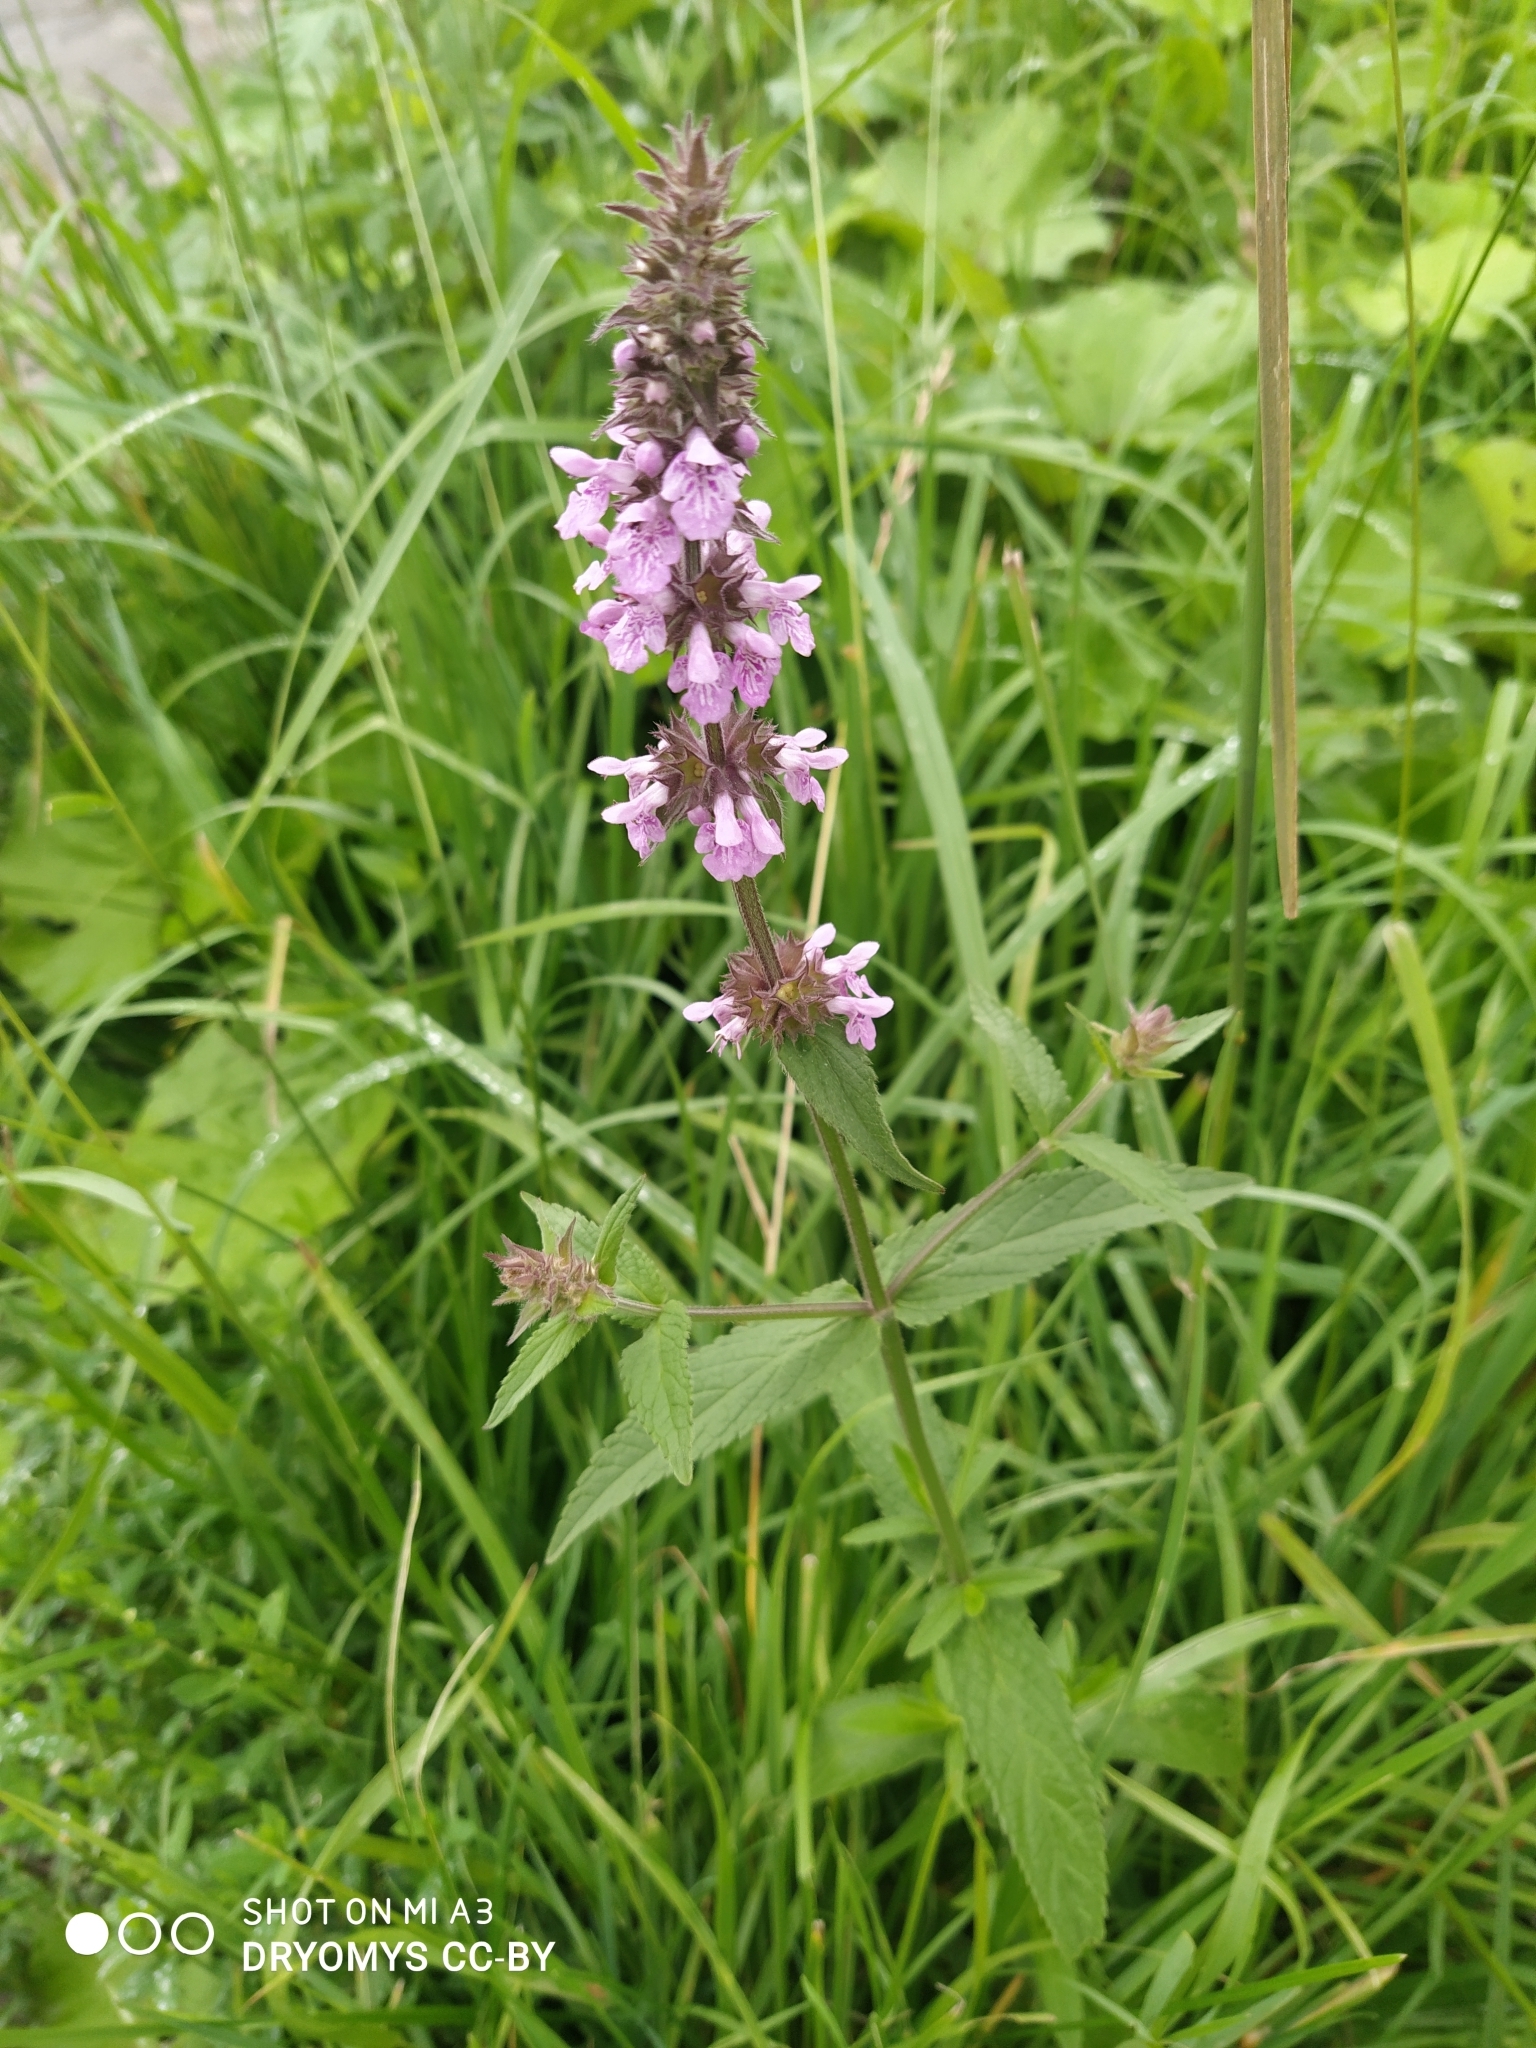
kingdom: Plantae
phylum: Tracheophyta
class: Magnoliopsida
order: Lamiales
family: Lamiaceae
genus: Stachys
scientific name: Stachys palustris
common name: Marsh woundwort
